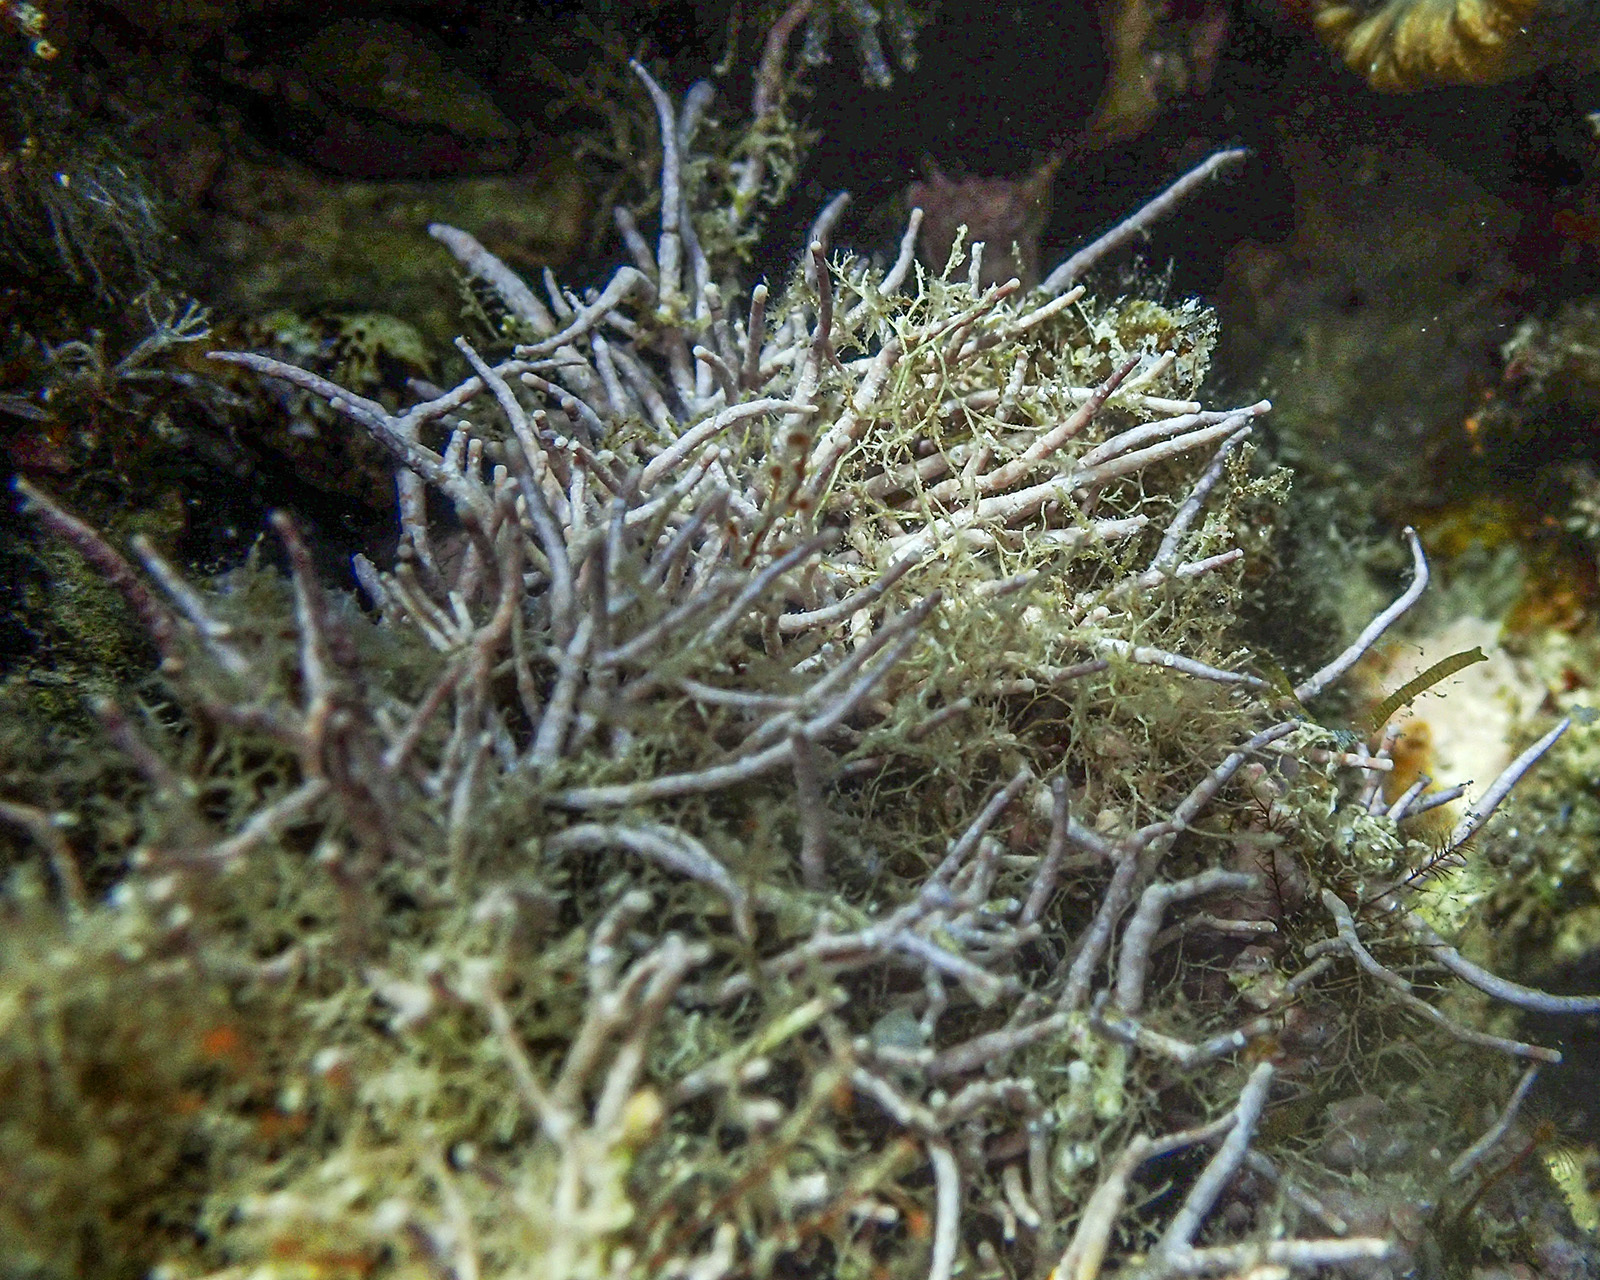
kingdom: Plantae
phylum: Rhodophyta
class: Florideophyceae
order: Corallinales
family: Lithophyllaceae
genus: Amphiroa
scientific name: Amphiroa rigida
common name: Y-twig algae
